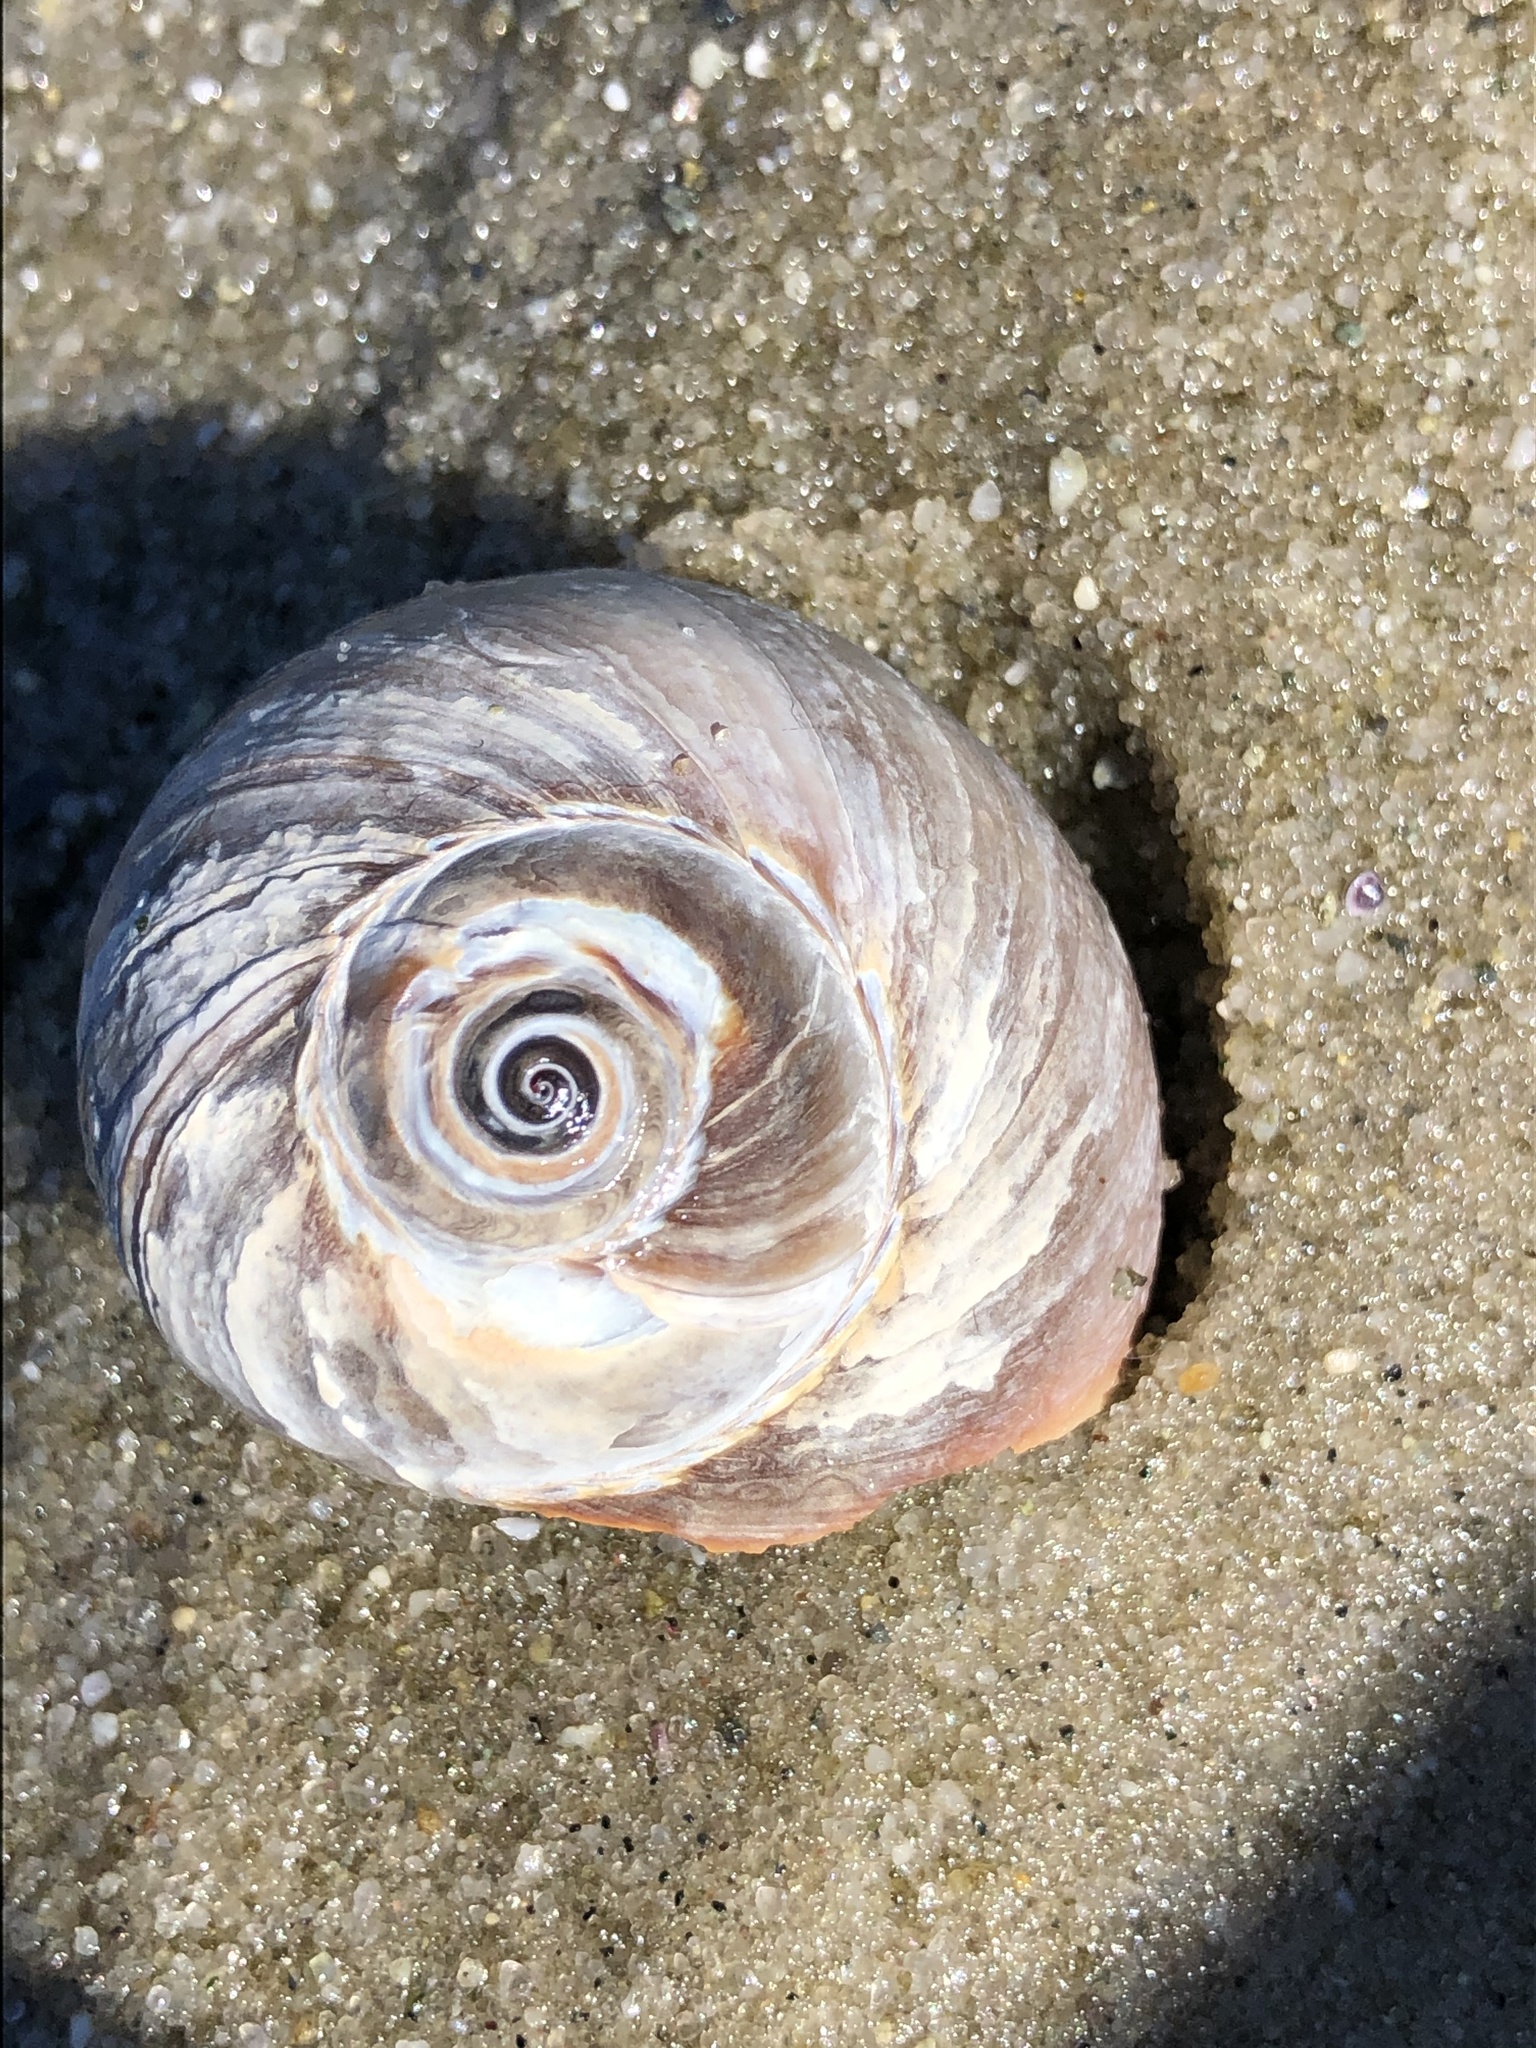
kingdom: Animalia
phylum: Mollusca
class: Gastropoda
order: Littorinimorpha
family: Naticidae
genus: Euspira
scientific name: Euspira heros
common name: Common northern moonsnail
